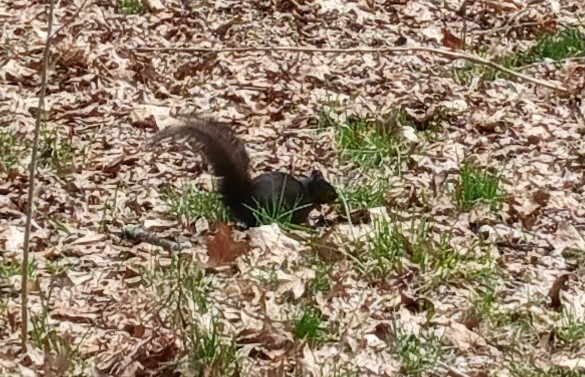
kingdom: Animalia
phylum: Chordata
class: Mammalia
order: Rodentia
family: Sciuridae
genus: Sciurus
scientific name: Sciurus carolinensis
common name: Eastern gray squirrel
